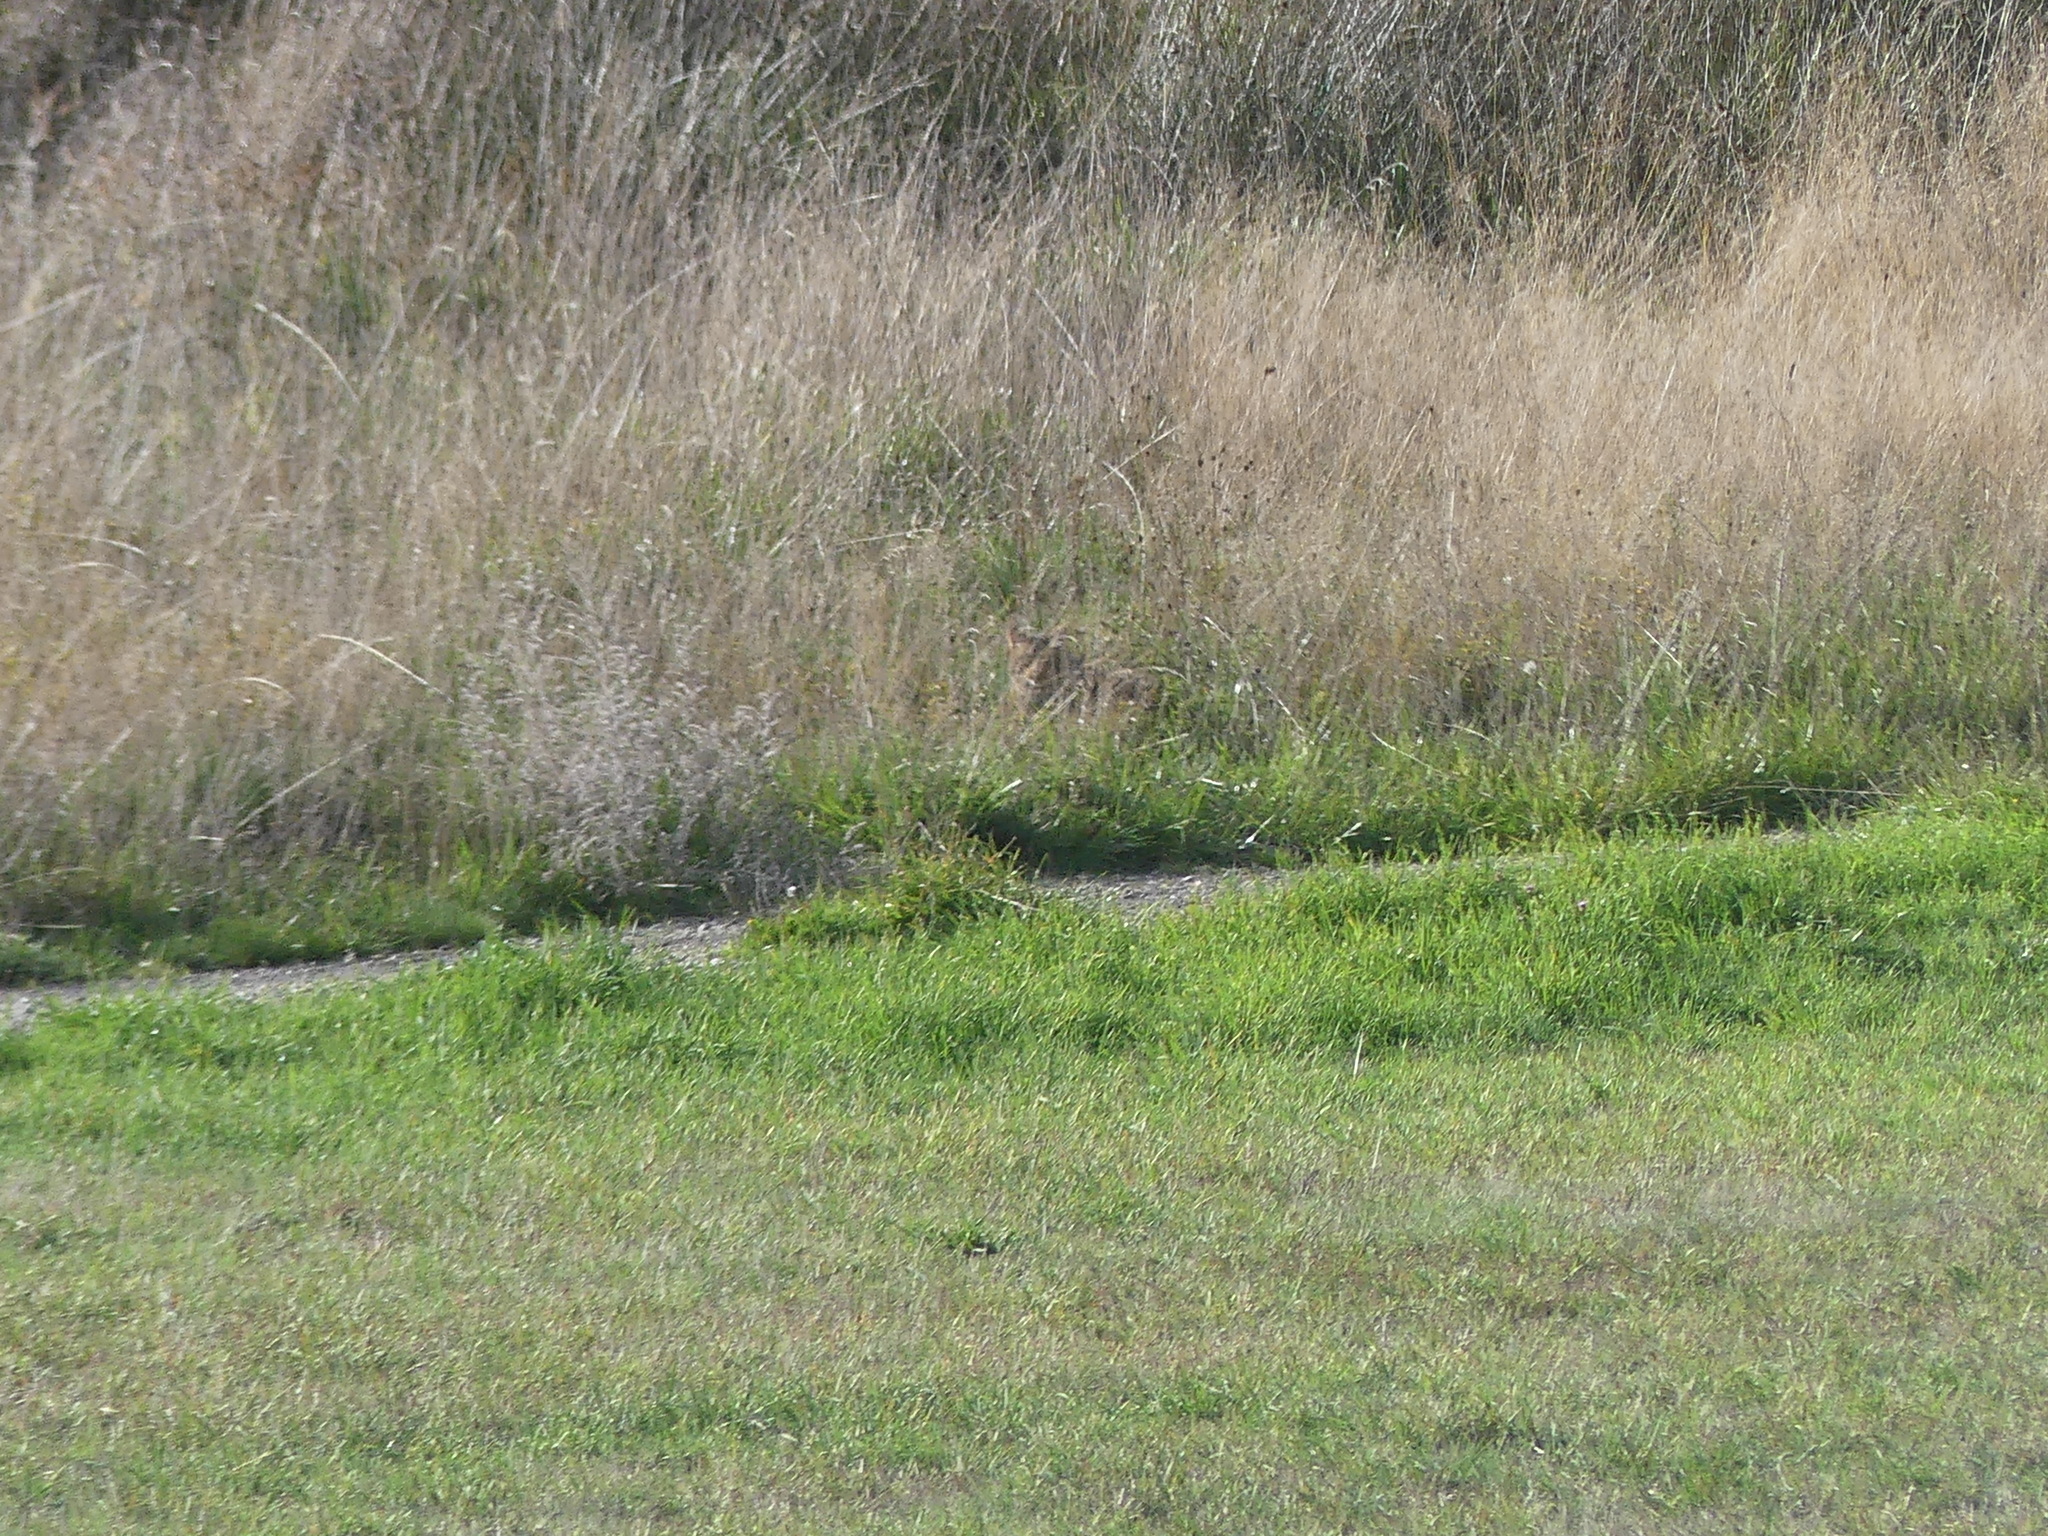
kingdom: Animalia
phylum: Chordata
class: Mammalia
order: Carnivora
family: Felidae
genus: Felis
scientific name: Felis silvestris
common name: Wildcat
